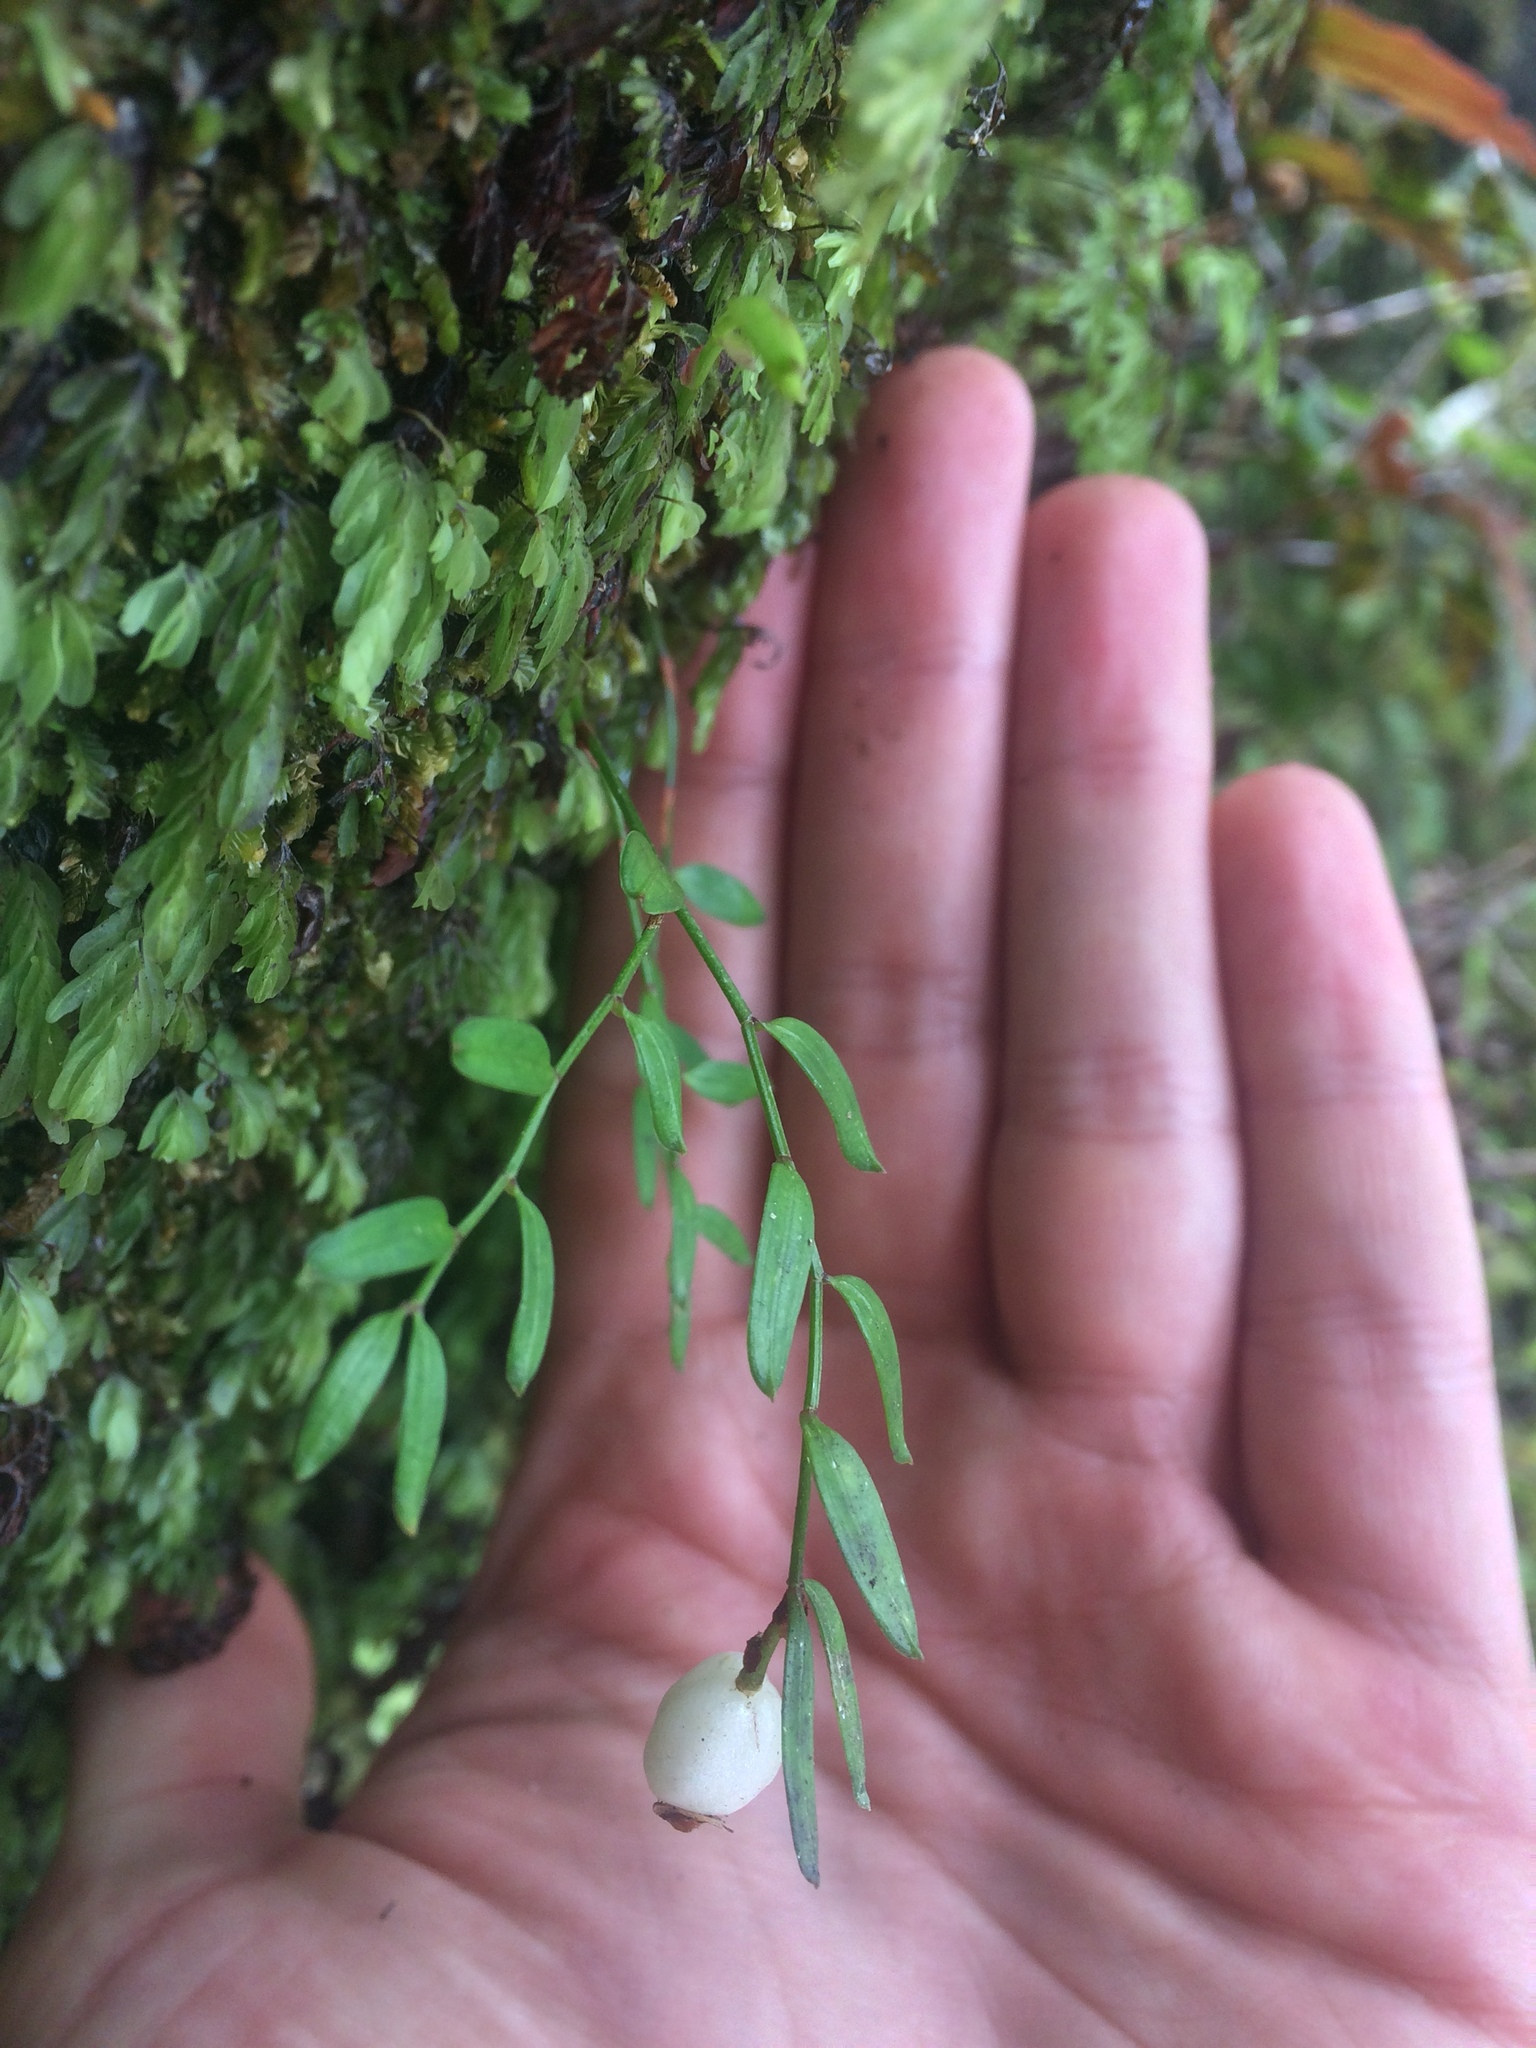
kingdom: Plantae
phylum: Tracheophyta
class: Liliopsida
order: Liliales
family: Alstroemeriaceae
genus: Luzuriaga
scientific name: Luzuriaga parviflora
